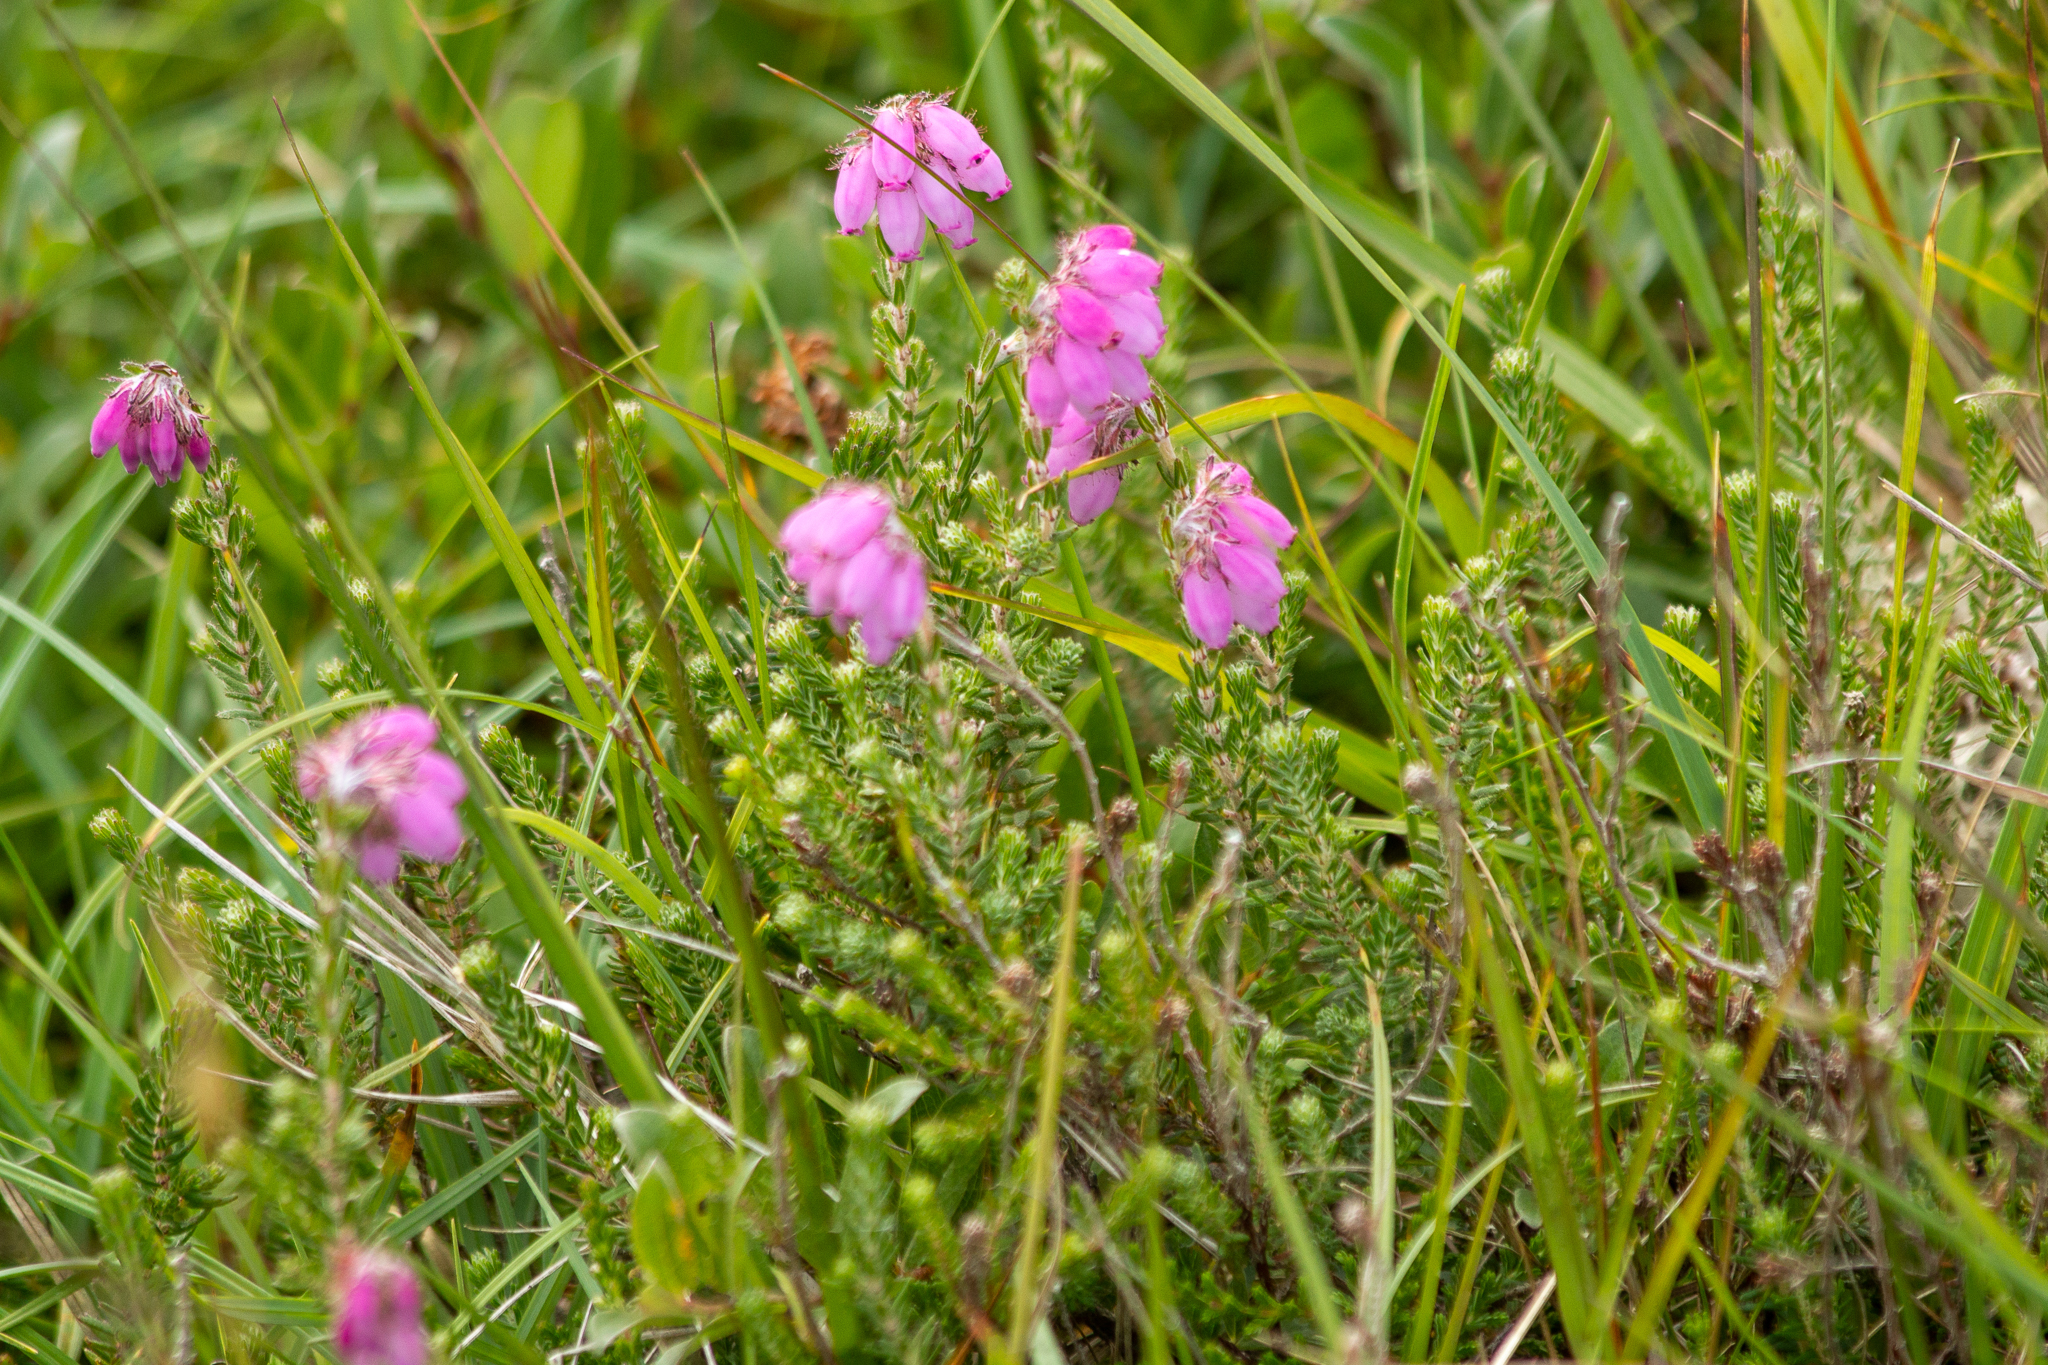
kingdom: Plantae
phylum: Tracheophyta
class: Magnoliopsida
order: Ericales
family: Ericaceae
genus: Erica
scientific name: Erica tetralix
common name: Cross-leaved heath
